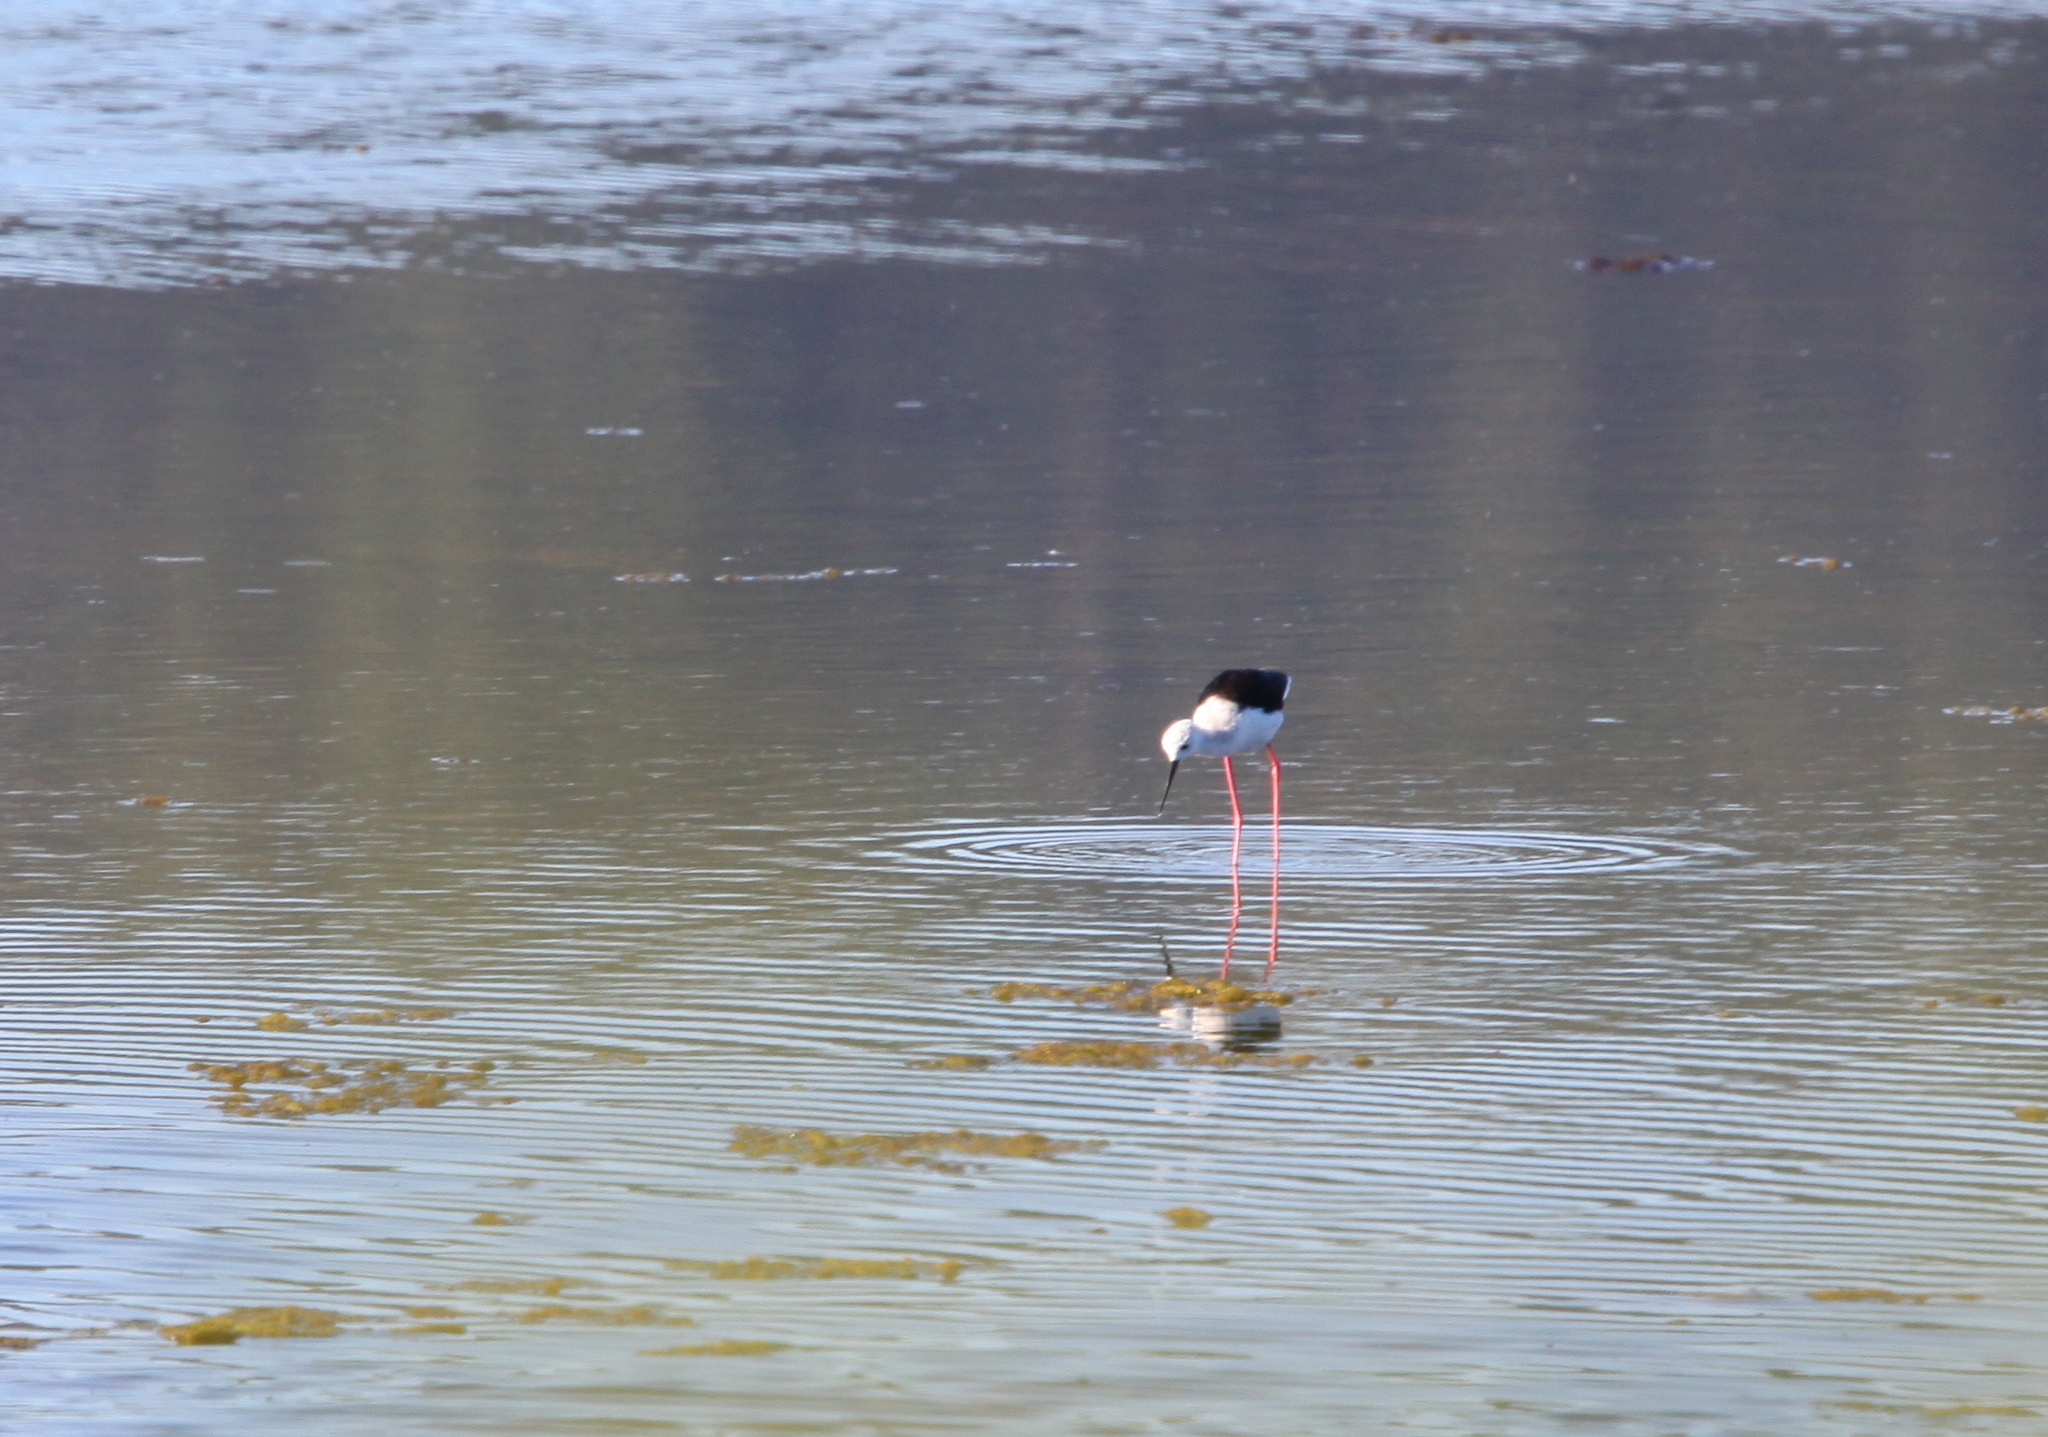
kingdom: Animalia
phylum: Chordata
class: Aves
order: Charadriiformes
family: Recurvirostridae
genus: Himantopus
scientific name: Himantopus himantopus
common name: Black-winged stilt
